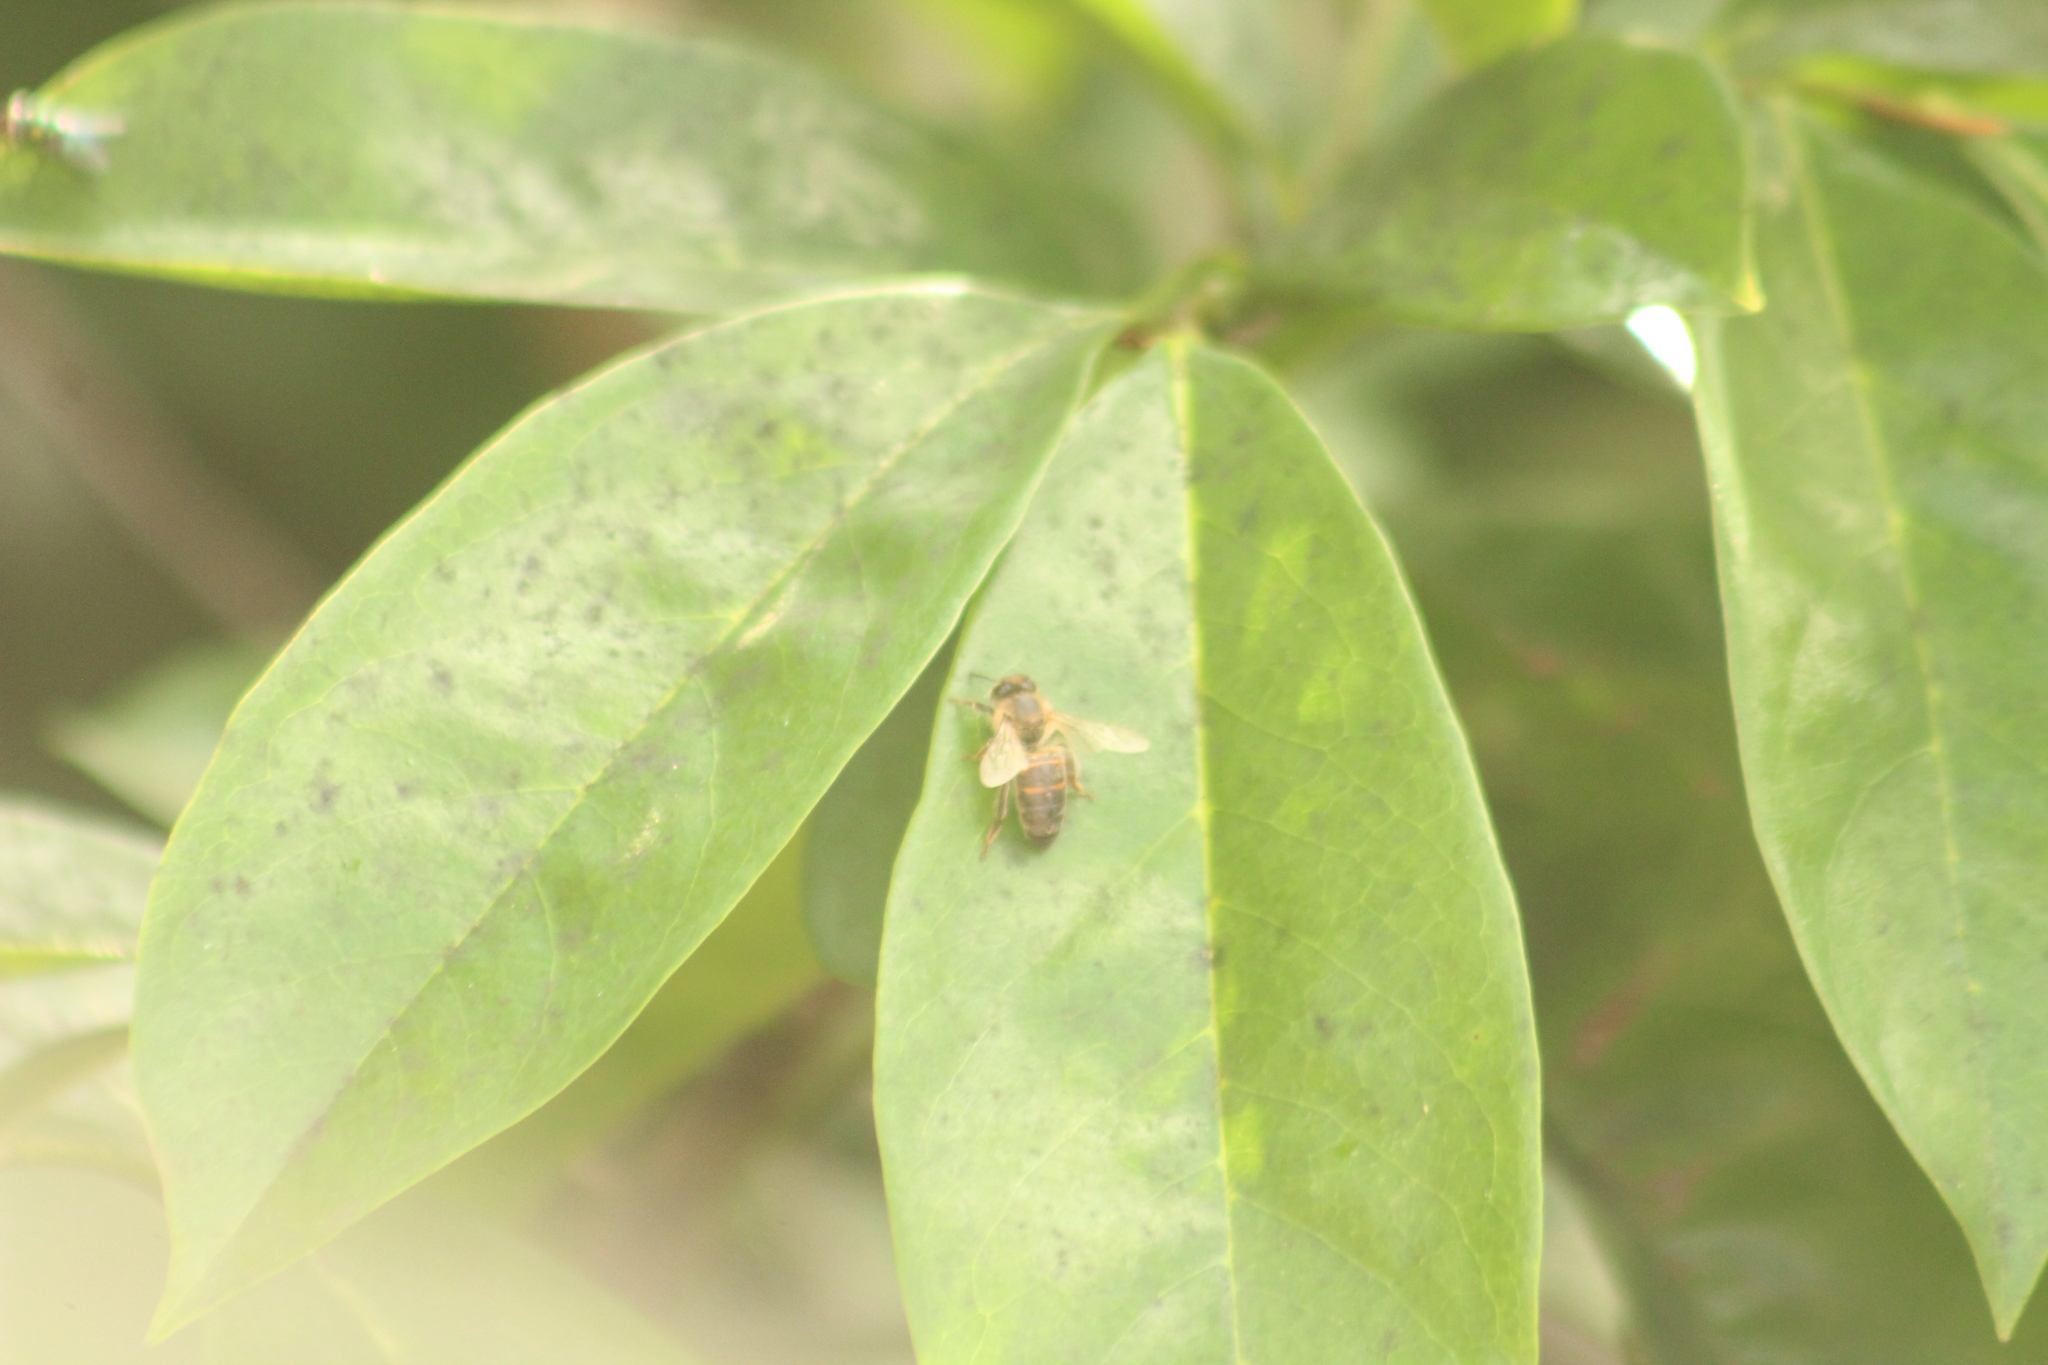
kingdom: Animalia
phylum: Arthropoda
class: Insecta
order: Hymenoptera
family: Apidae
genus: Apis
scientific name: Apis mellifera
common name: Honey bee
